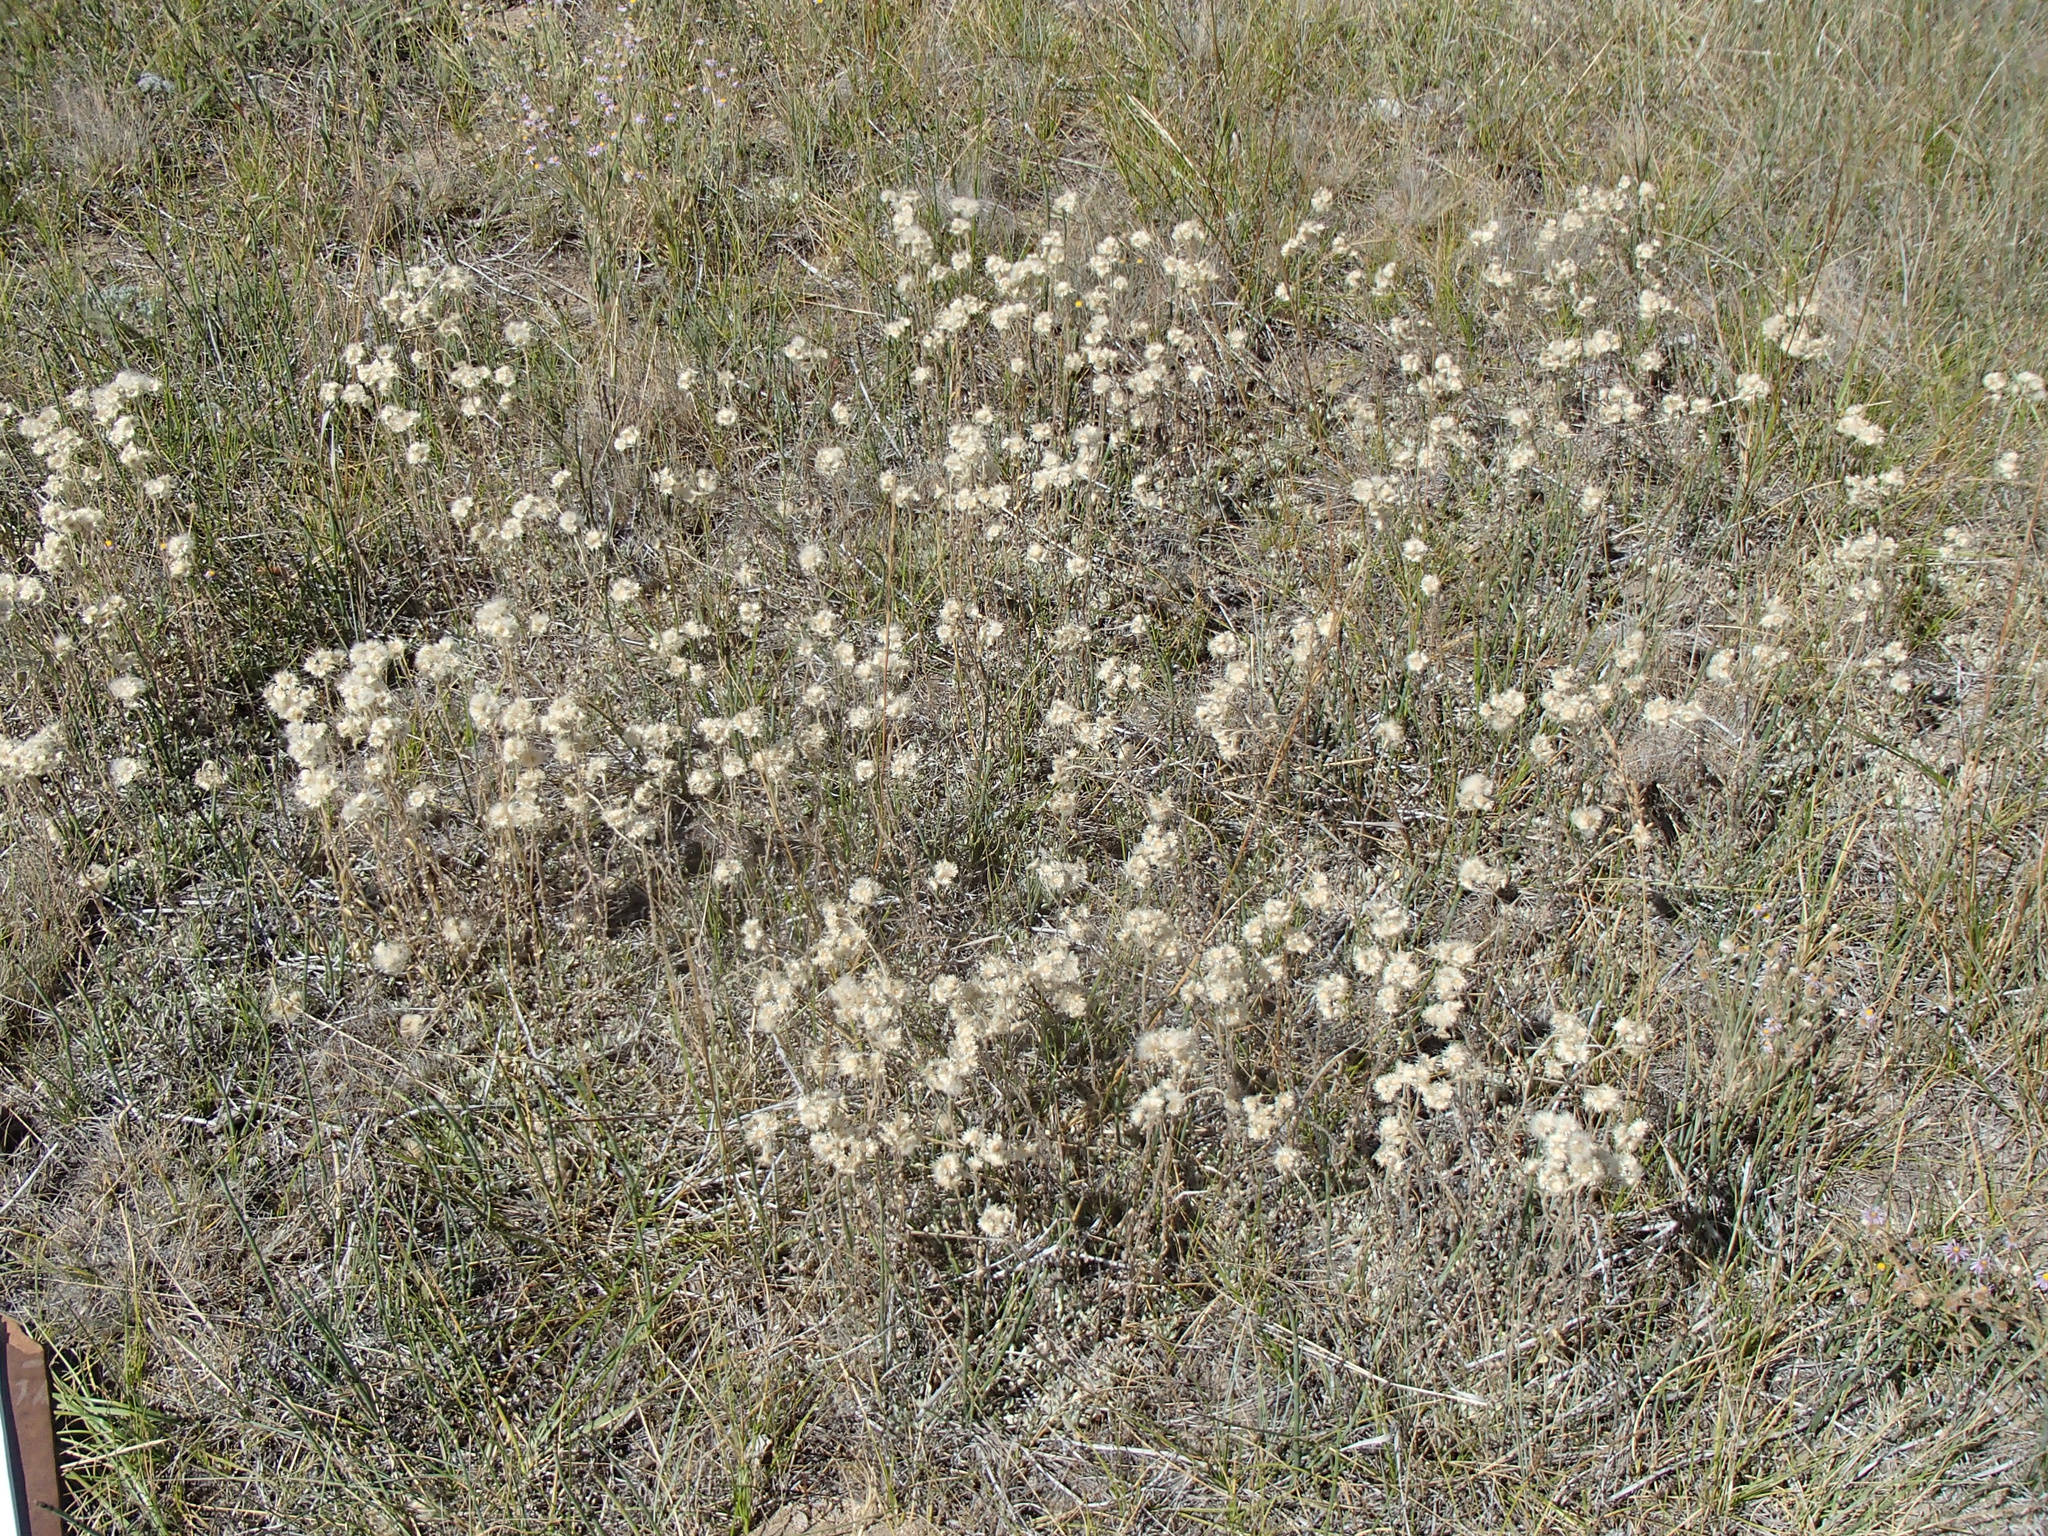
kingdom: Plantae
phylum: Tracheophyta
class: Magnoliopsida
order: Asterales
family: Asteraceae
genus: Antennaria
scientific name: Antennaria rosea
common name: Rosy pussytoes
